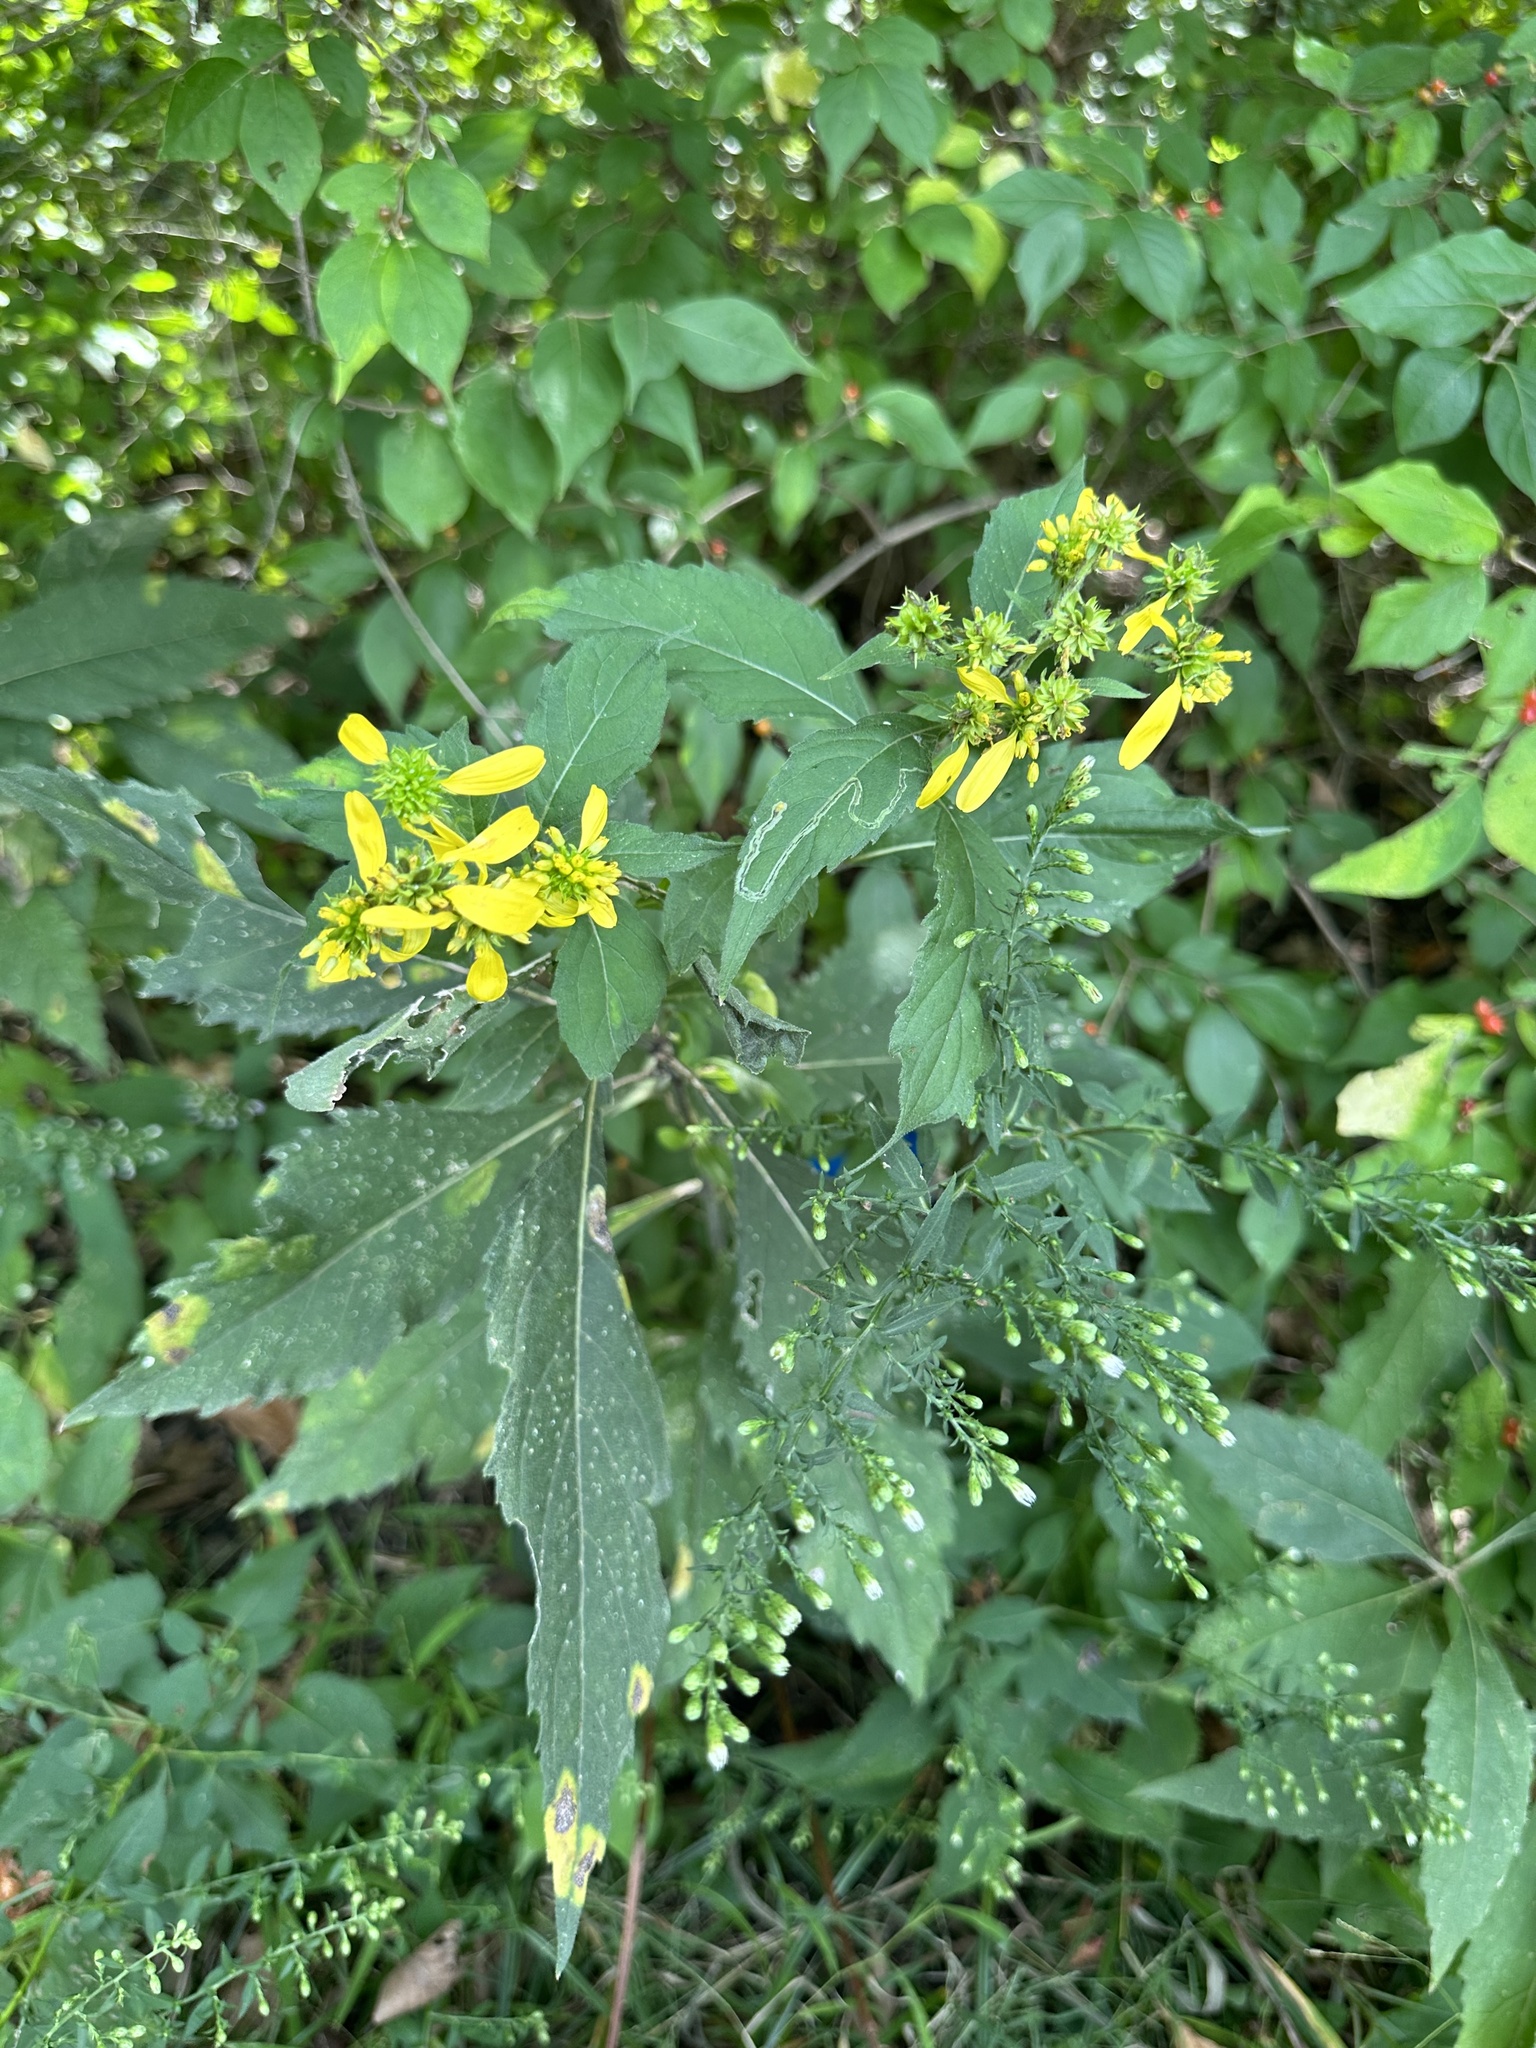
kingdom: Plantae
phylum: Tracheophyta
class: Magnoliopsida
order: Asterales
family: Asteraceae
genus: Verbesina
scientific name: Verbesina alternifolia
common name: Wingstem
